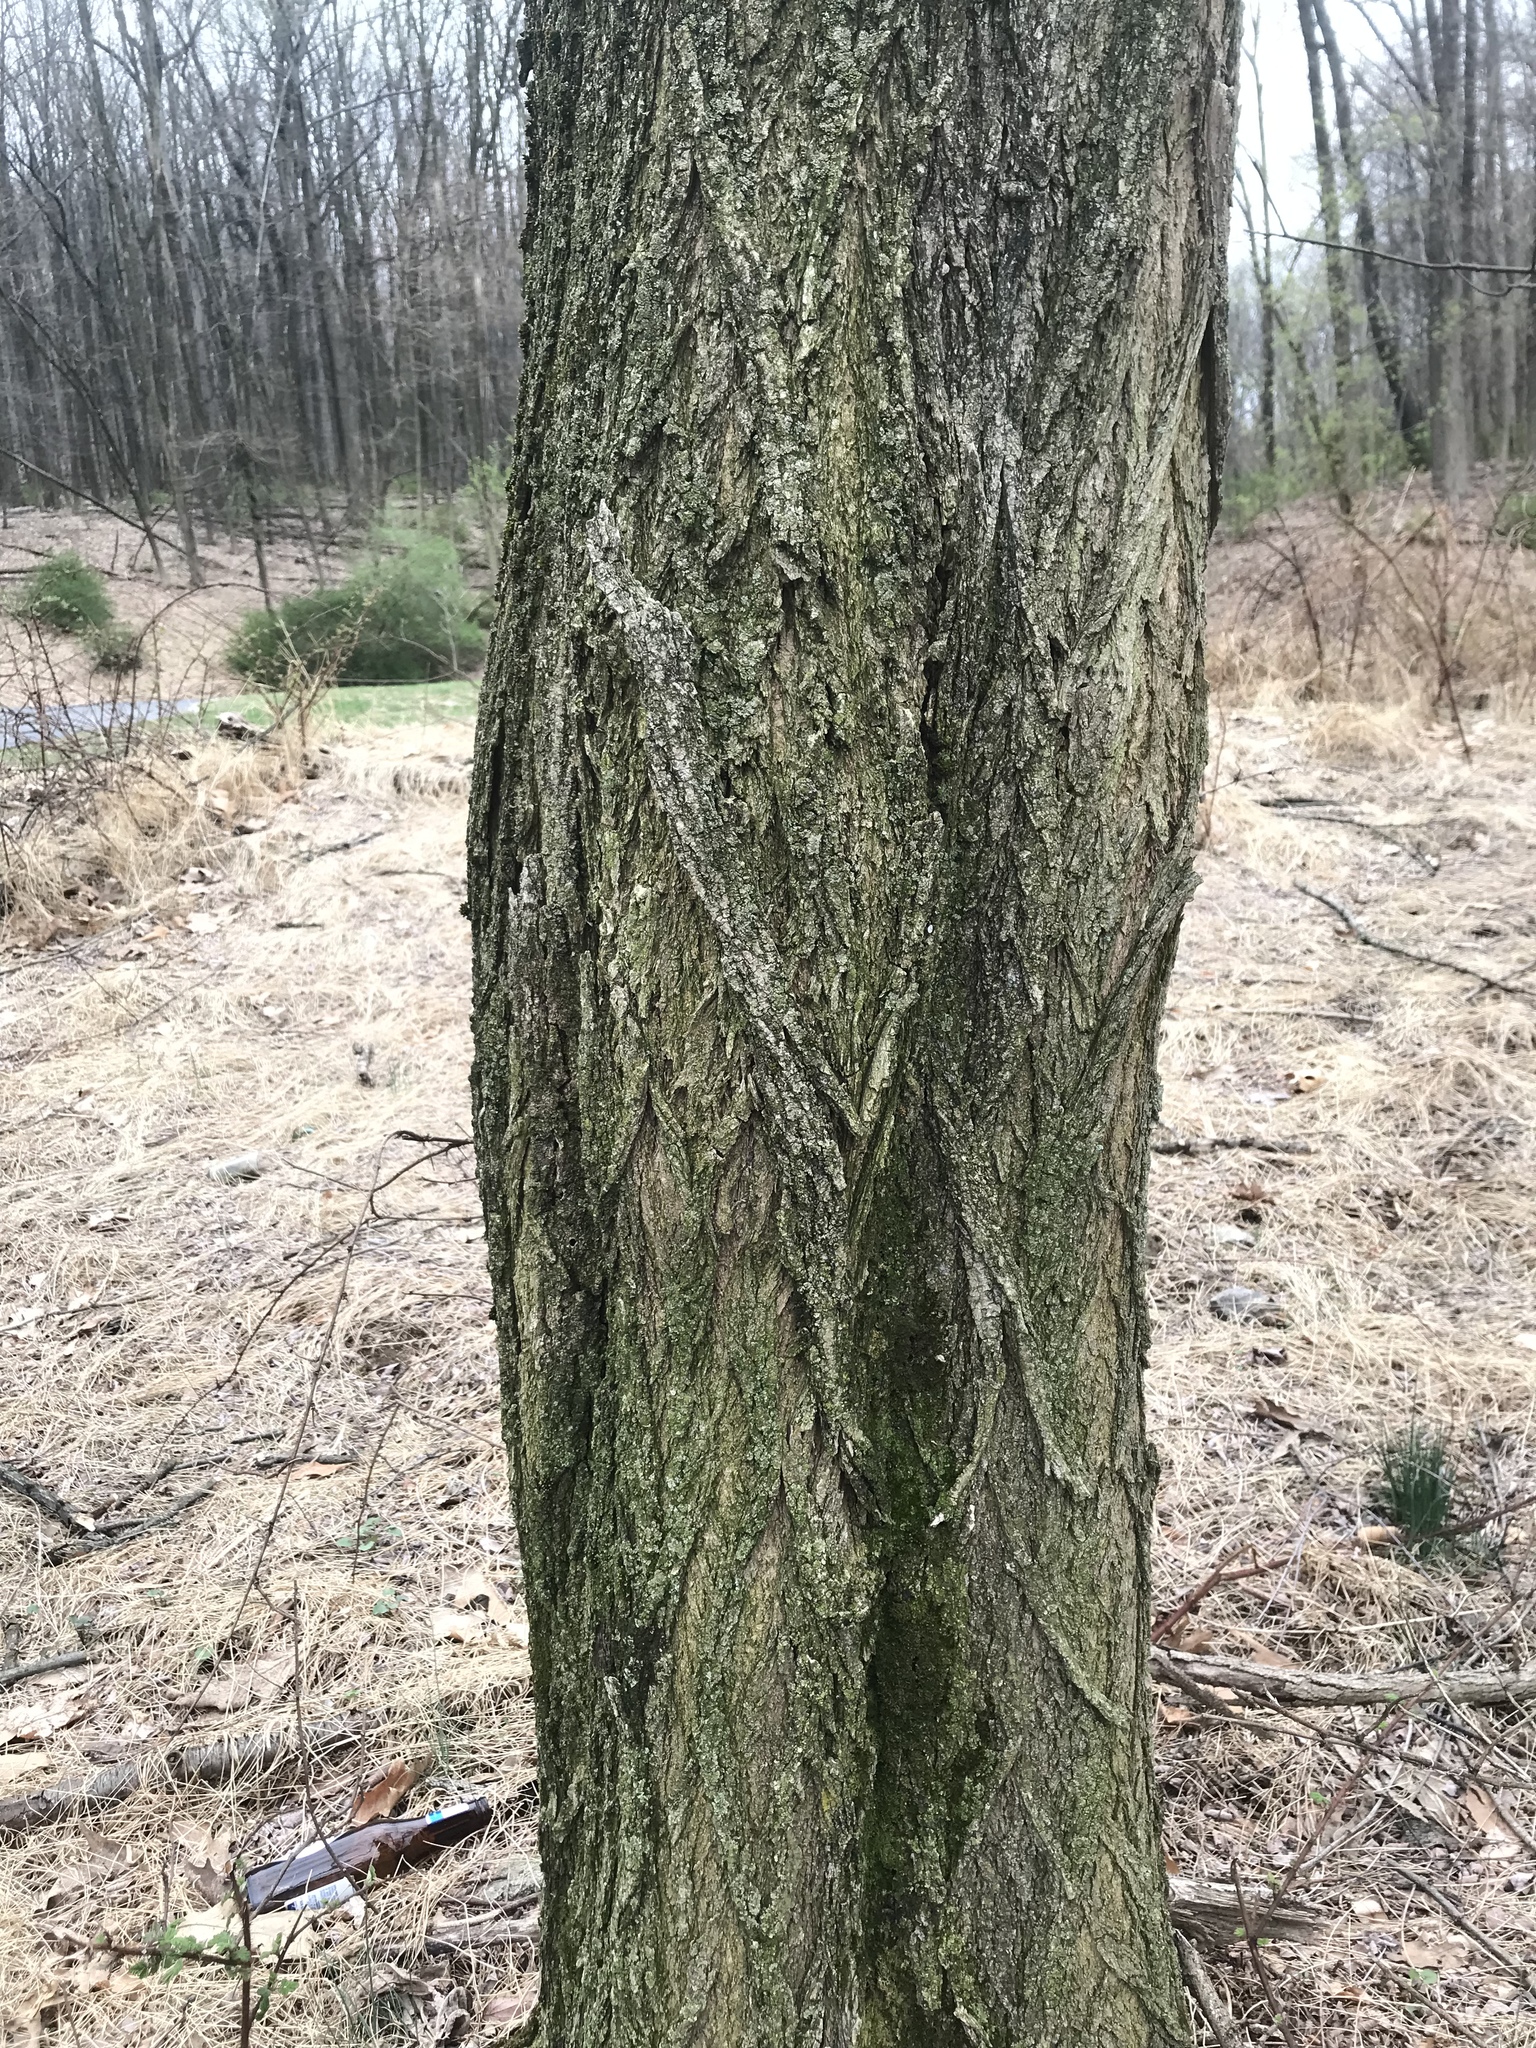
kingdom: Plantae
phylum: Tracheophyta
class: Magnoliopsida
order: Fabales
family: Fabaceae
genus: Robinia
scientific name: Robinia pseudoacacia
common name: Black locust
